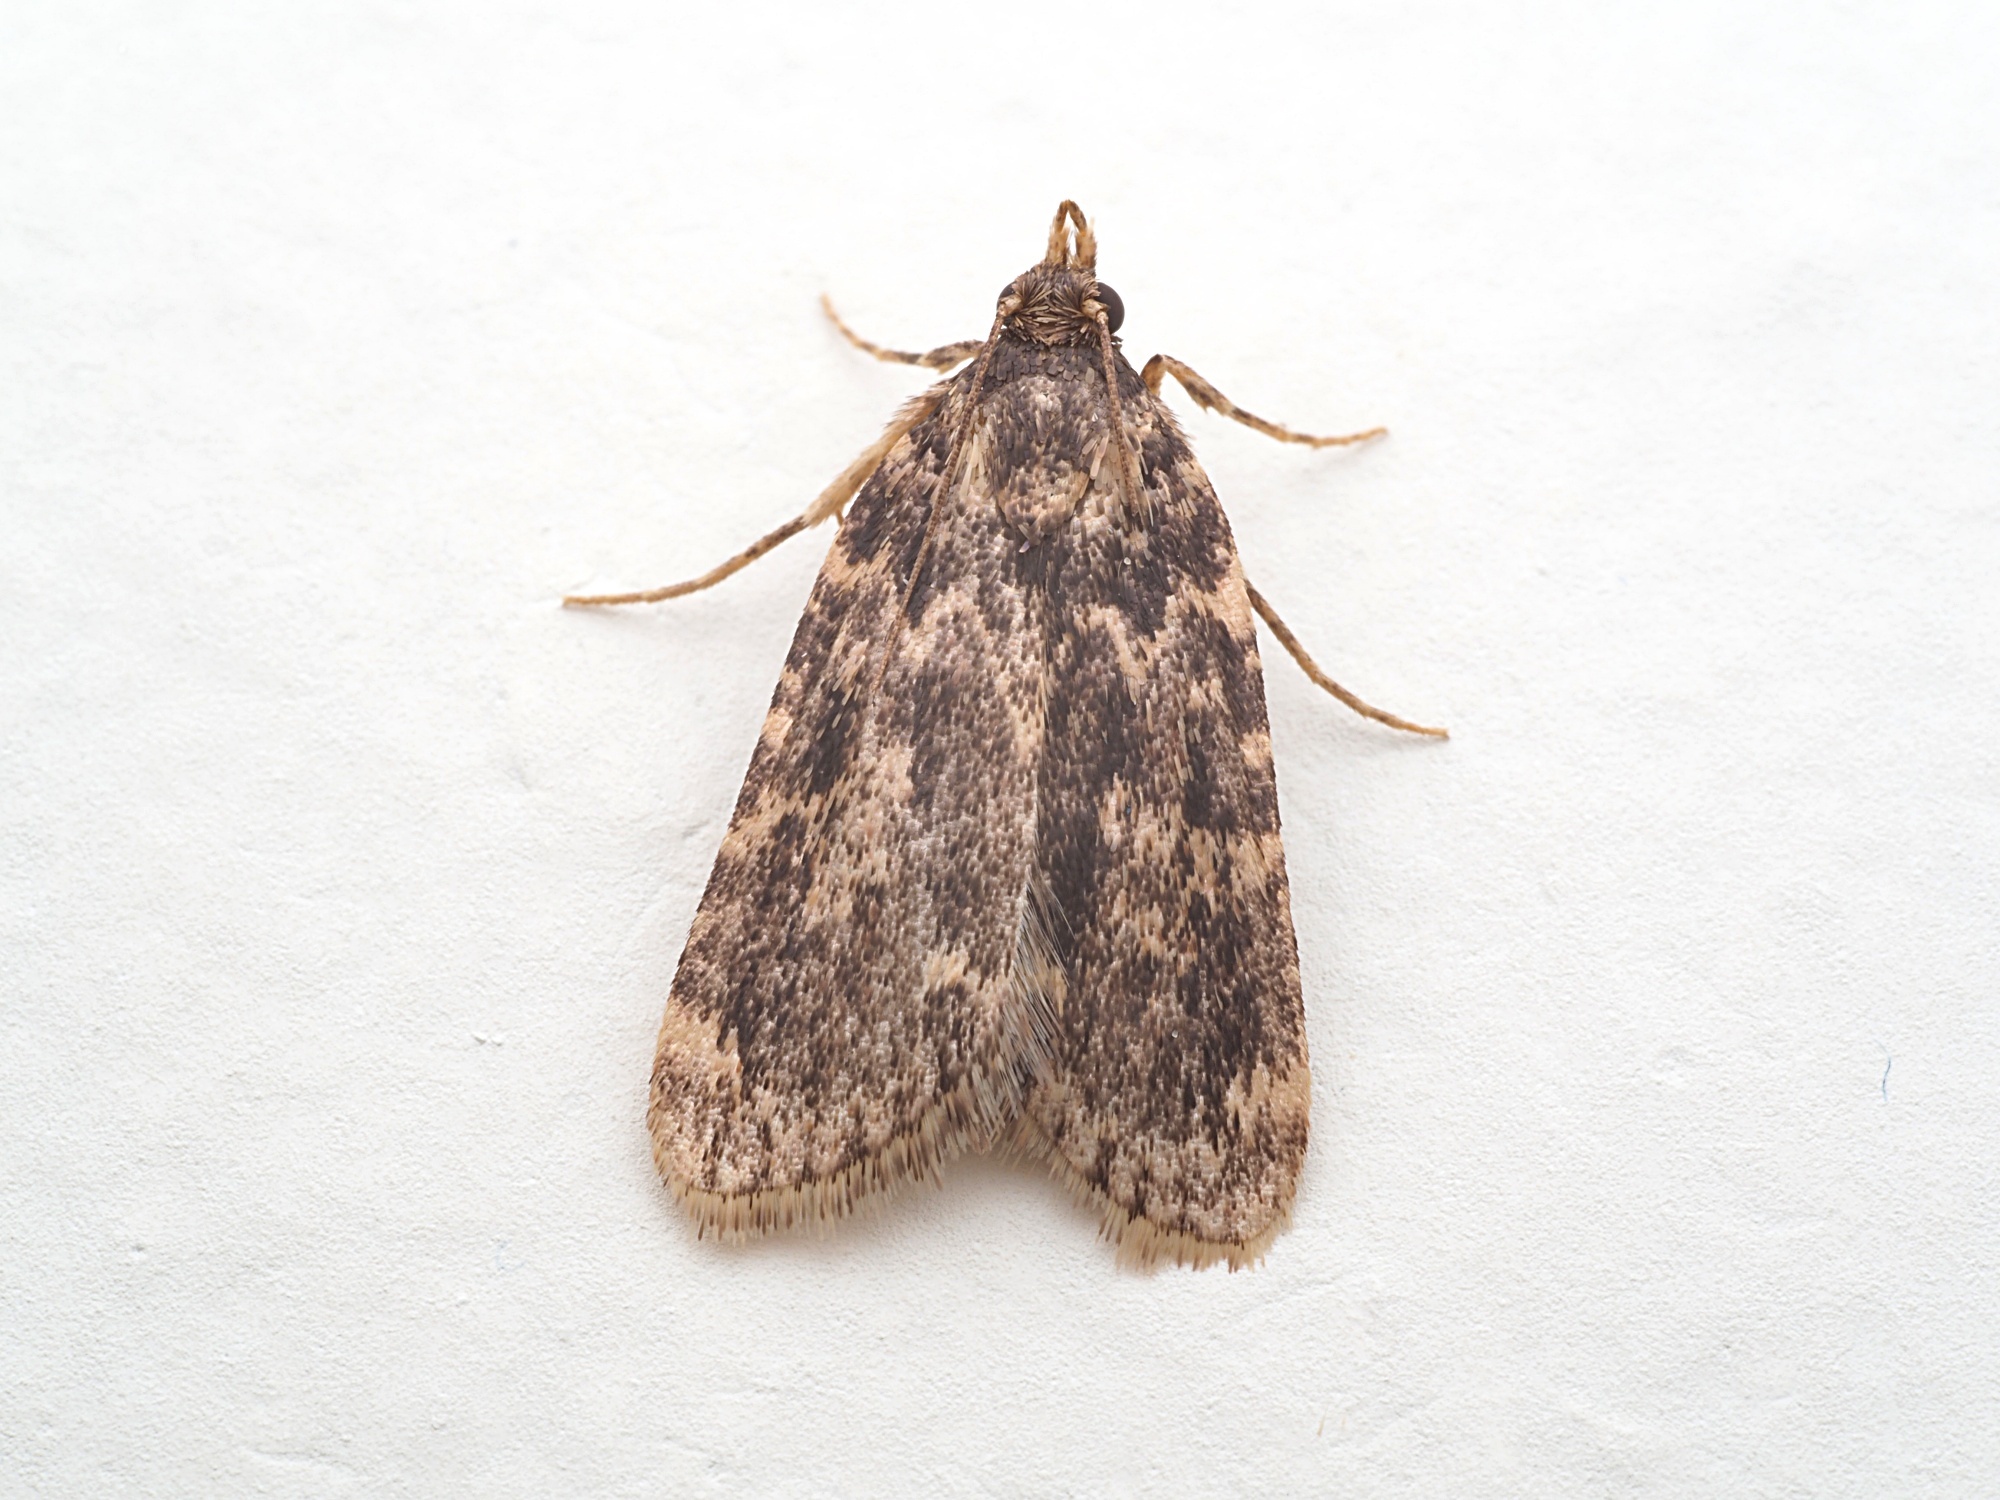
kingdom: Animalia
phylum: Arthropoda
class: Insecta
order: Lepidoptera
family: Pyralidae
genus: Aglossa
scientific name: Aglossa caprealis
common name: Small tabby
